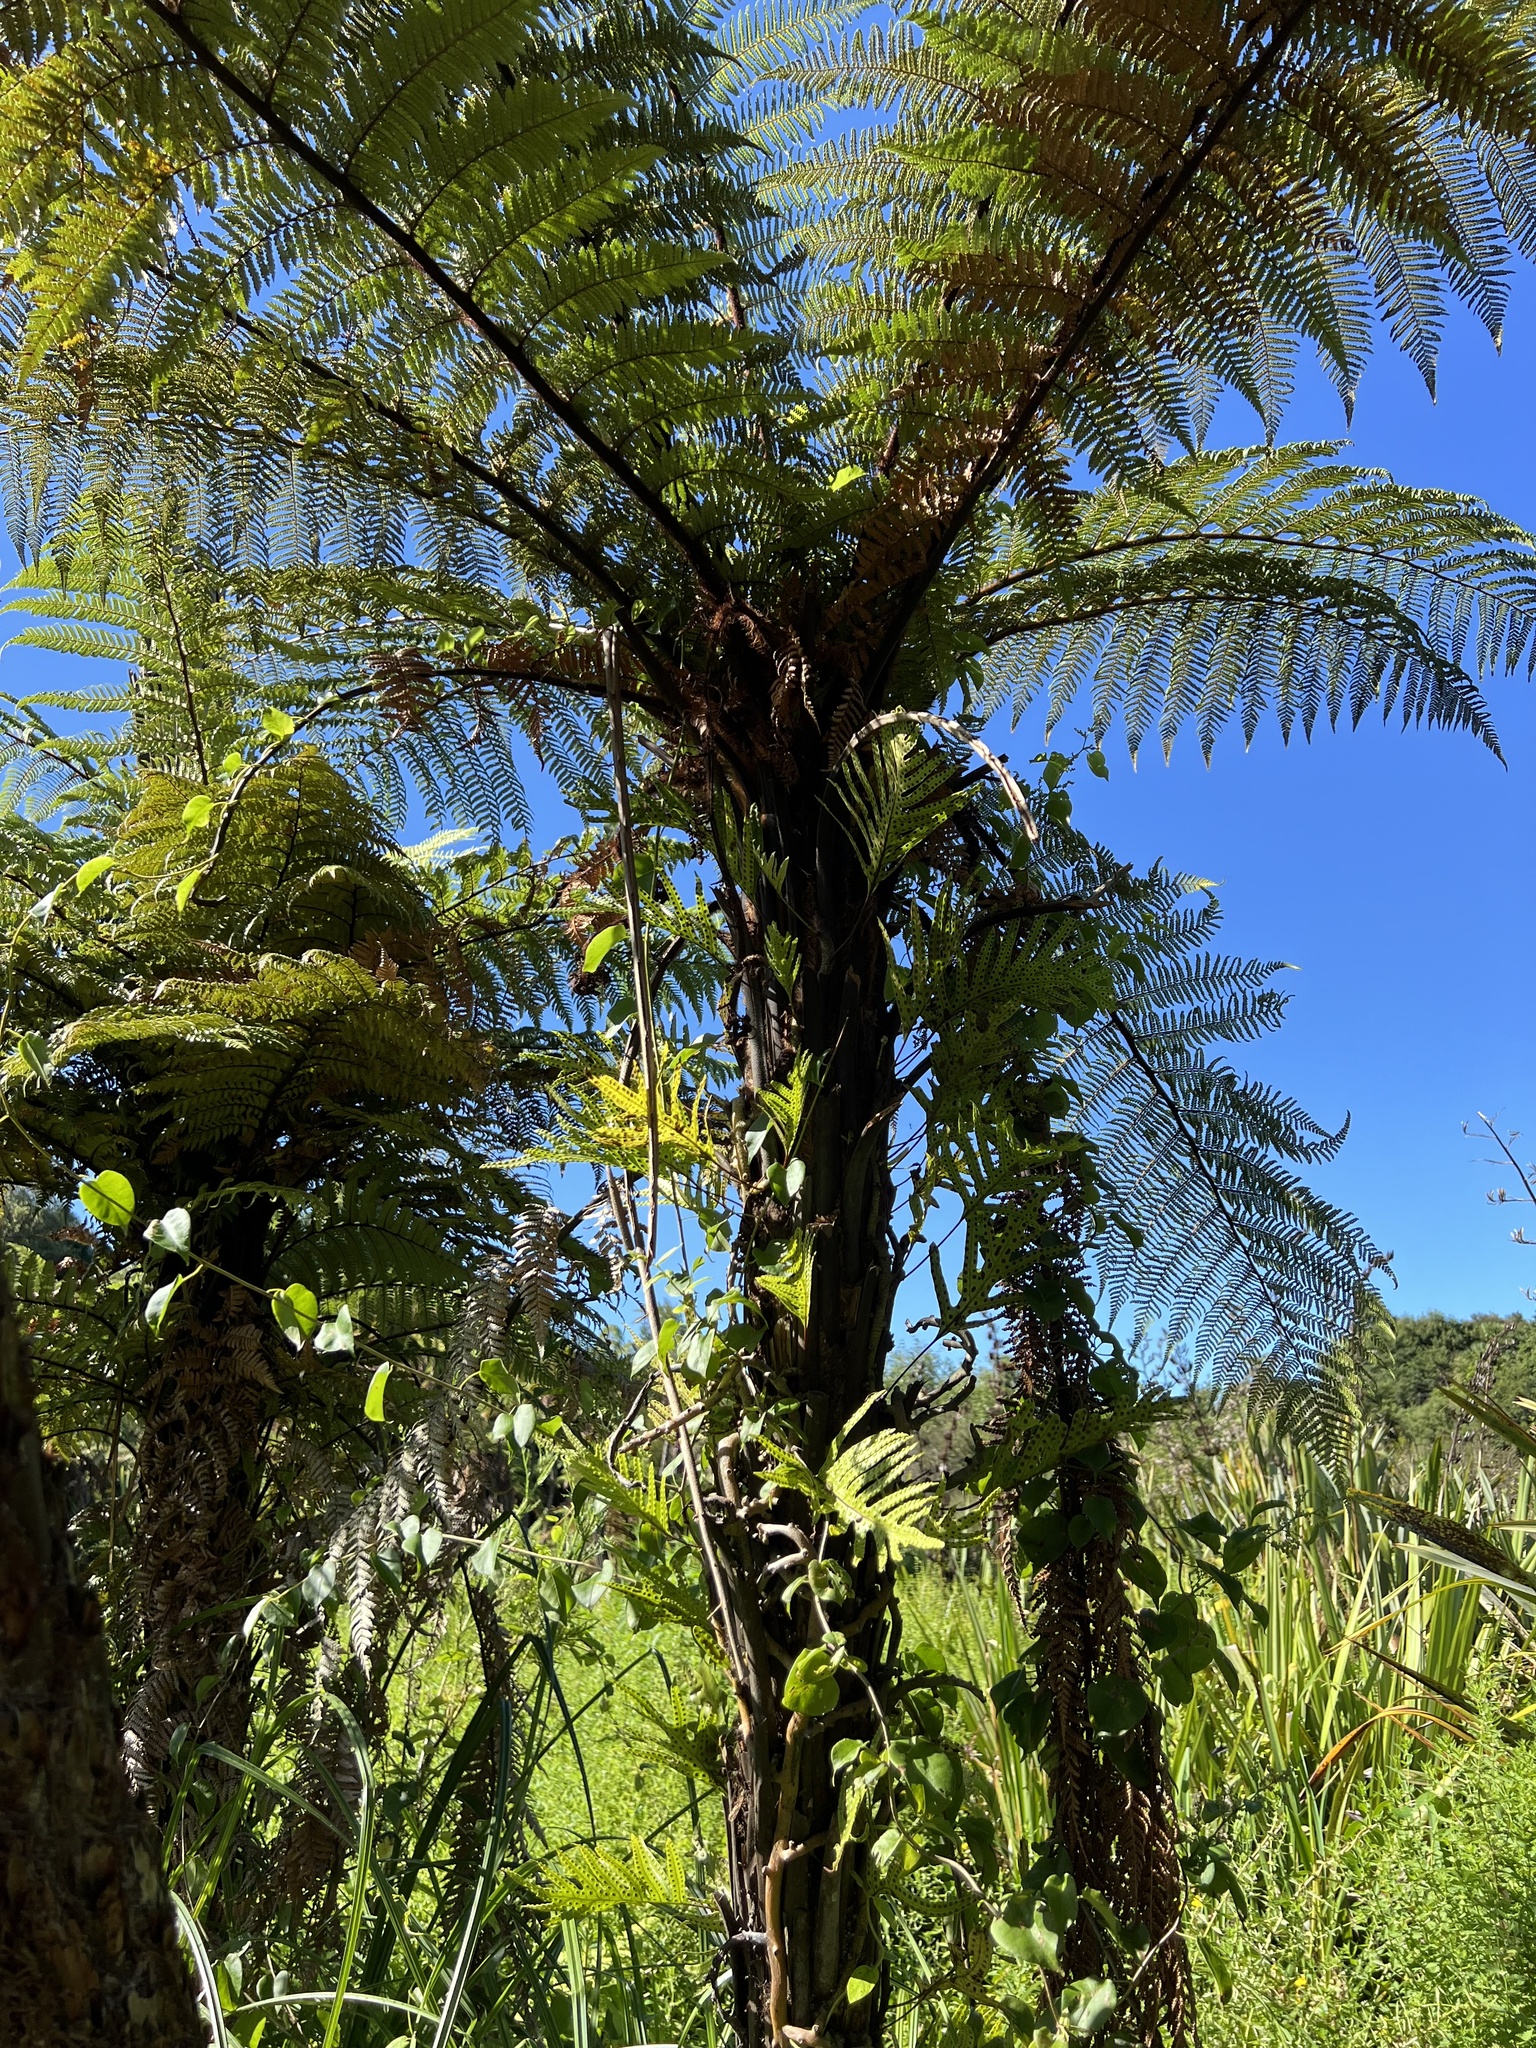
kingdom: Plantae
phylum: Tracheophyta
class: Polypodiopsida
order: Cyatheales
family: Dicksoniaceae
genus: Dicksonia
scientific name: Dicksonia squarrosa
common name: Hard treefern
